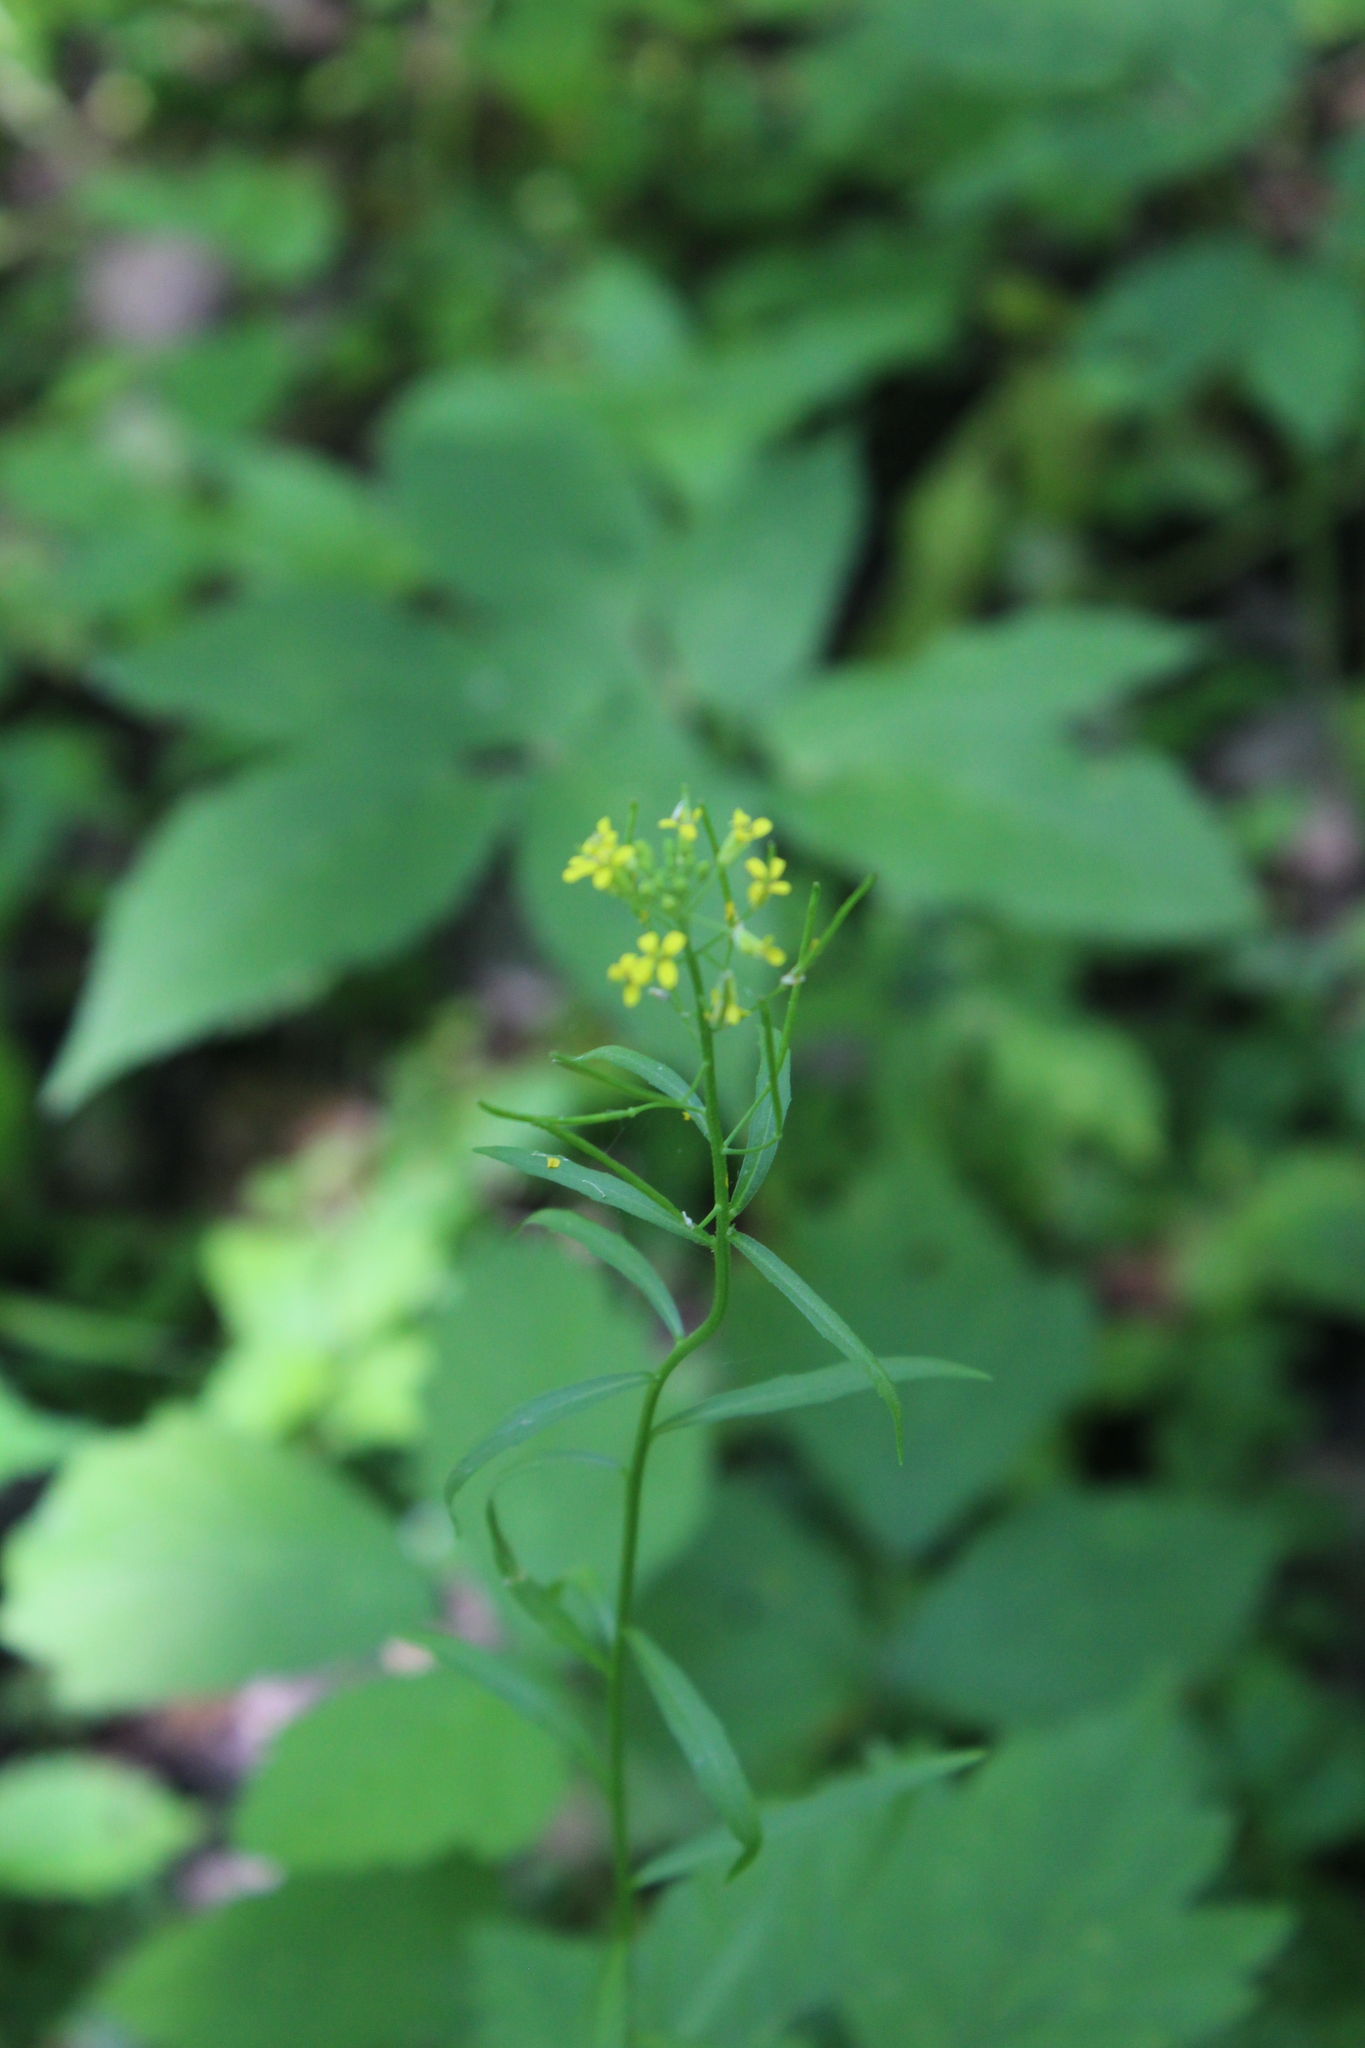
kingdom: Plantae
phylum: Tracheophyta
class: Magnoliopsida
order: Brassicales
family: Brassicaceae
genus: Erysimum
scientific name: Erysimum cheiranthoides
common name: Treacle mustard
